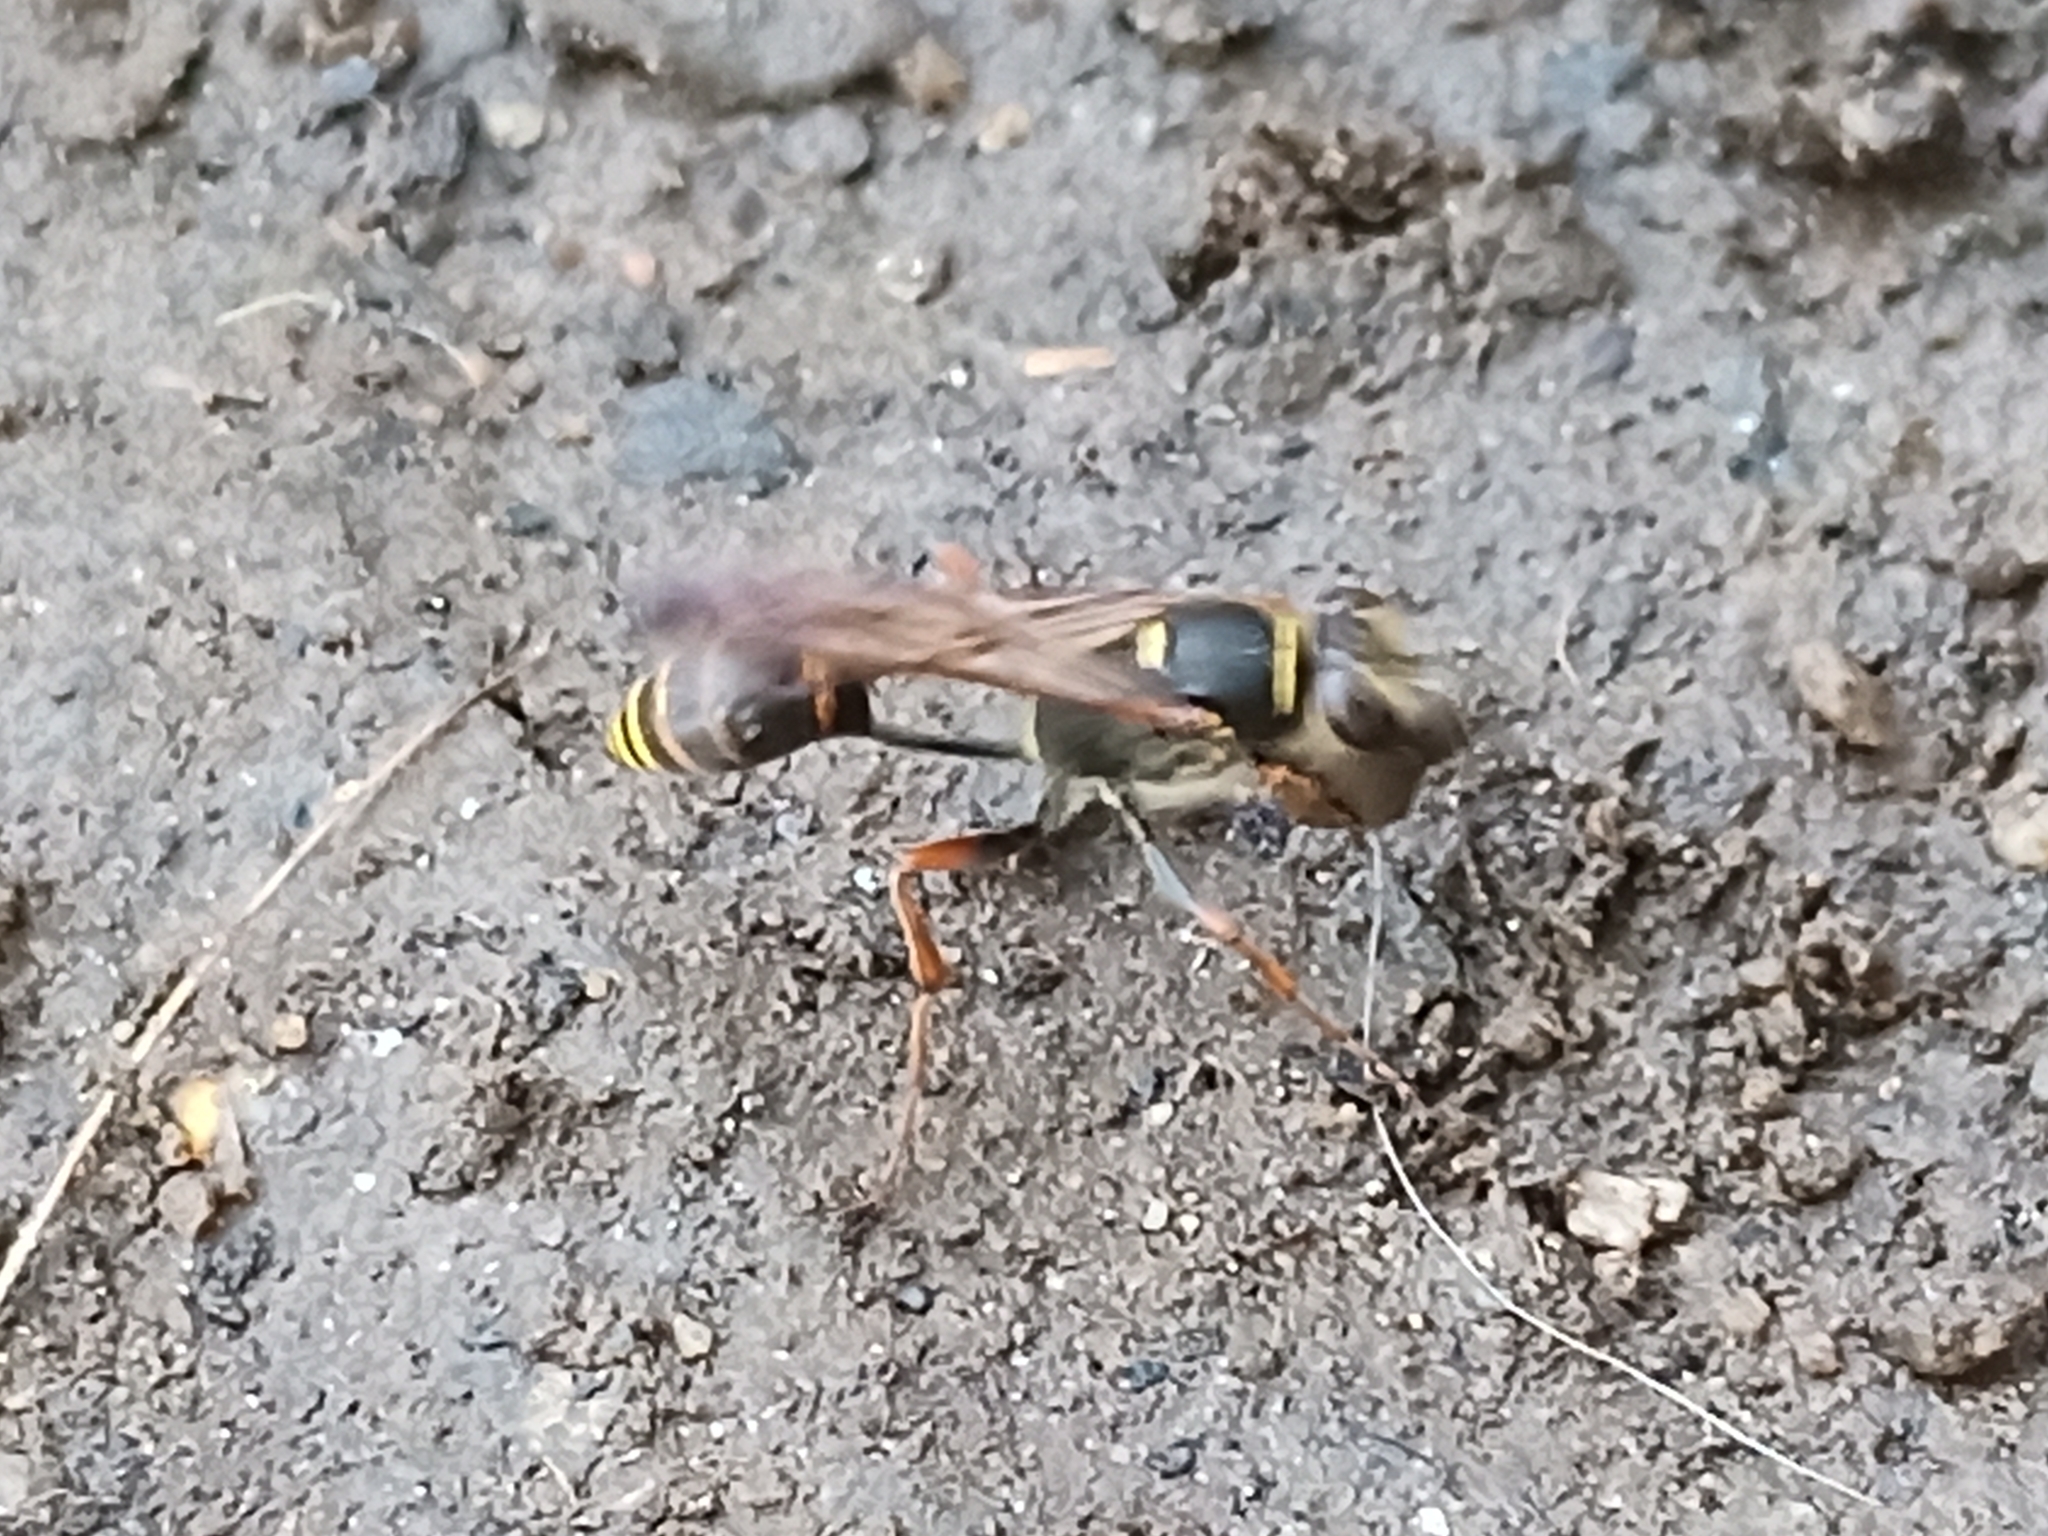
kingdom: Animalia
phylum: Arthropoda
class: Insecta
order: Hymenoptera
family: Sphecidae
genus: Sceliphron
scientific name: Sceliphron curvatum
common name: Pèlopèe
